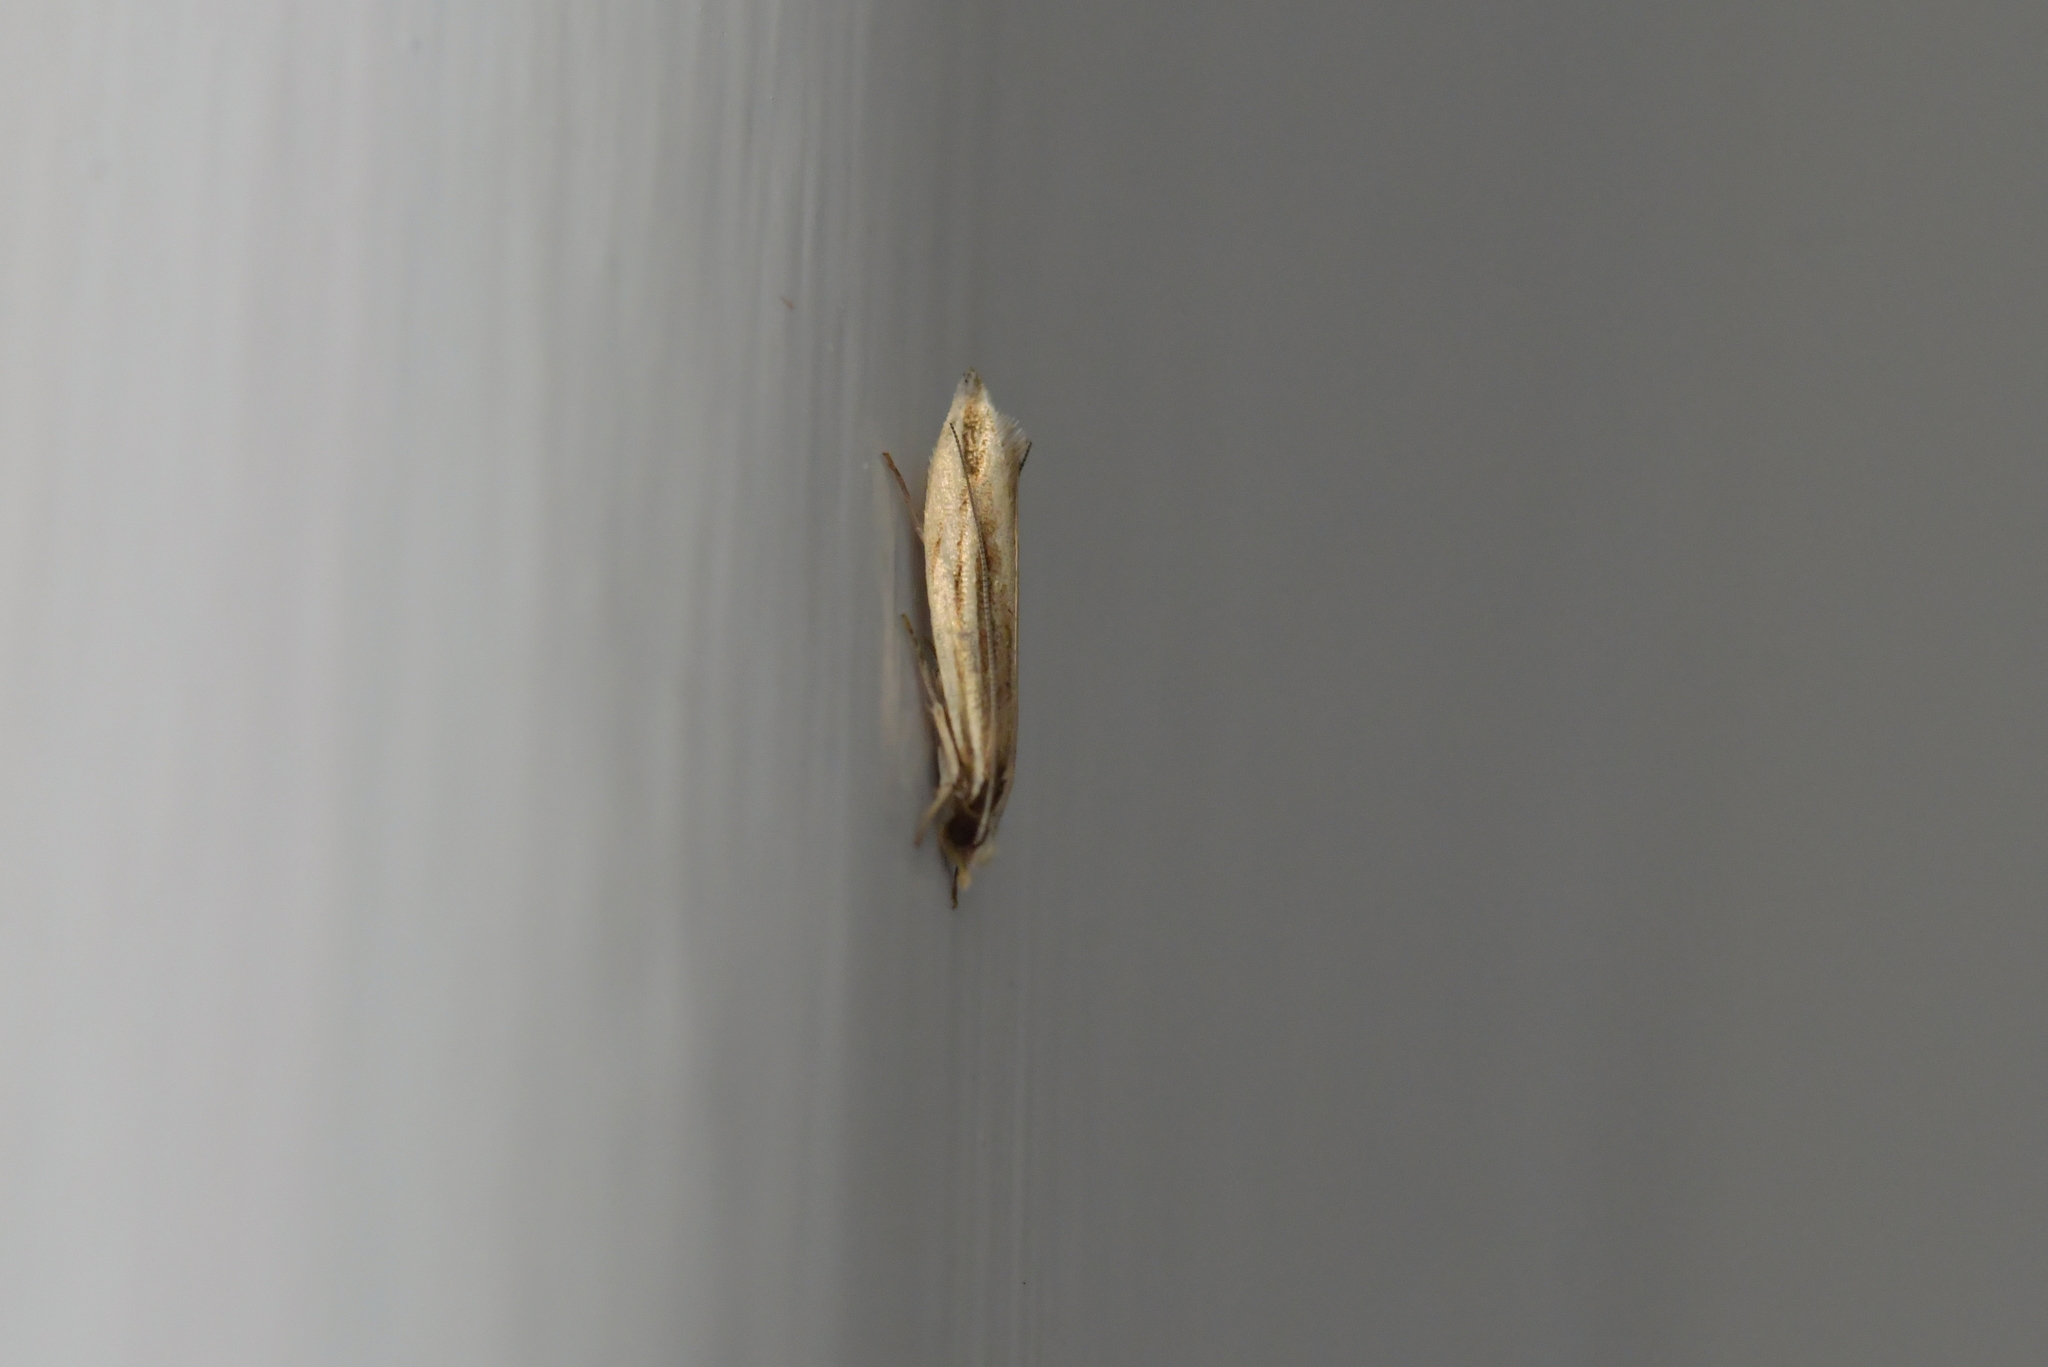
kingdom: Animalia
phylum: Arthropoda
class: Insecta
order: Lepidoptera
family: Tineidae
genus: Erechthias
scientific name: Erechthias stilbella
